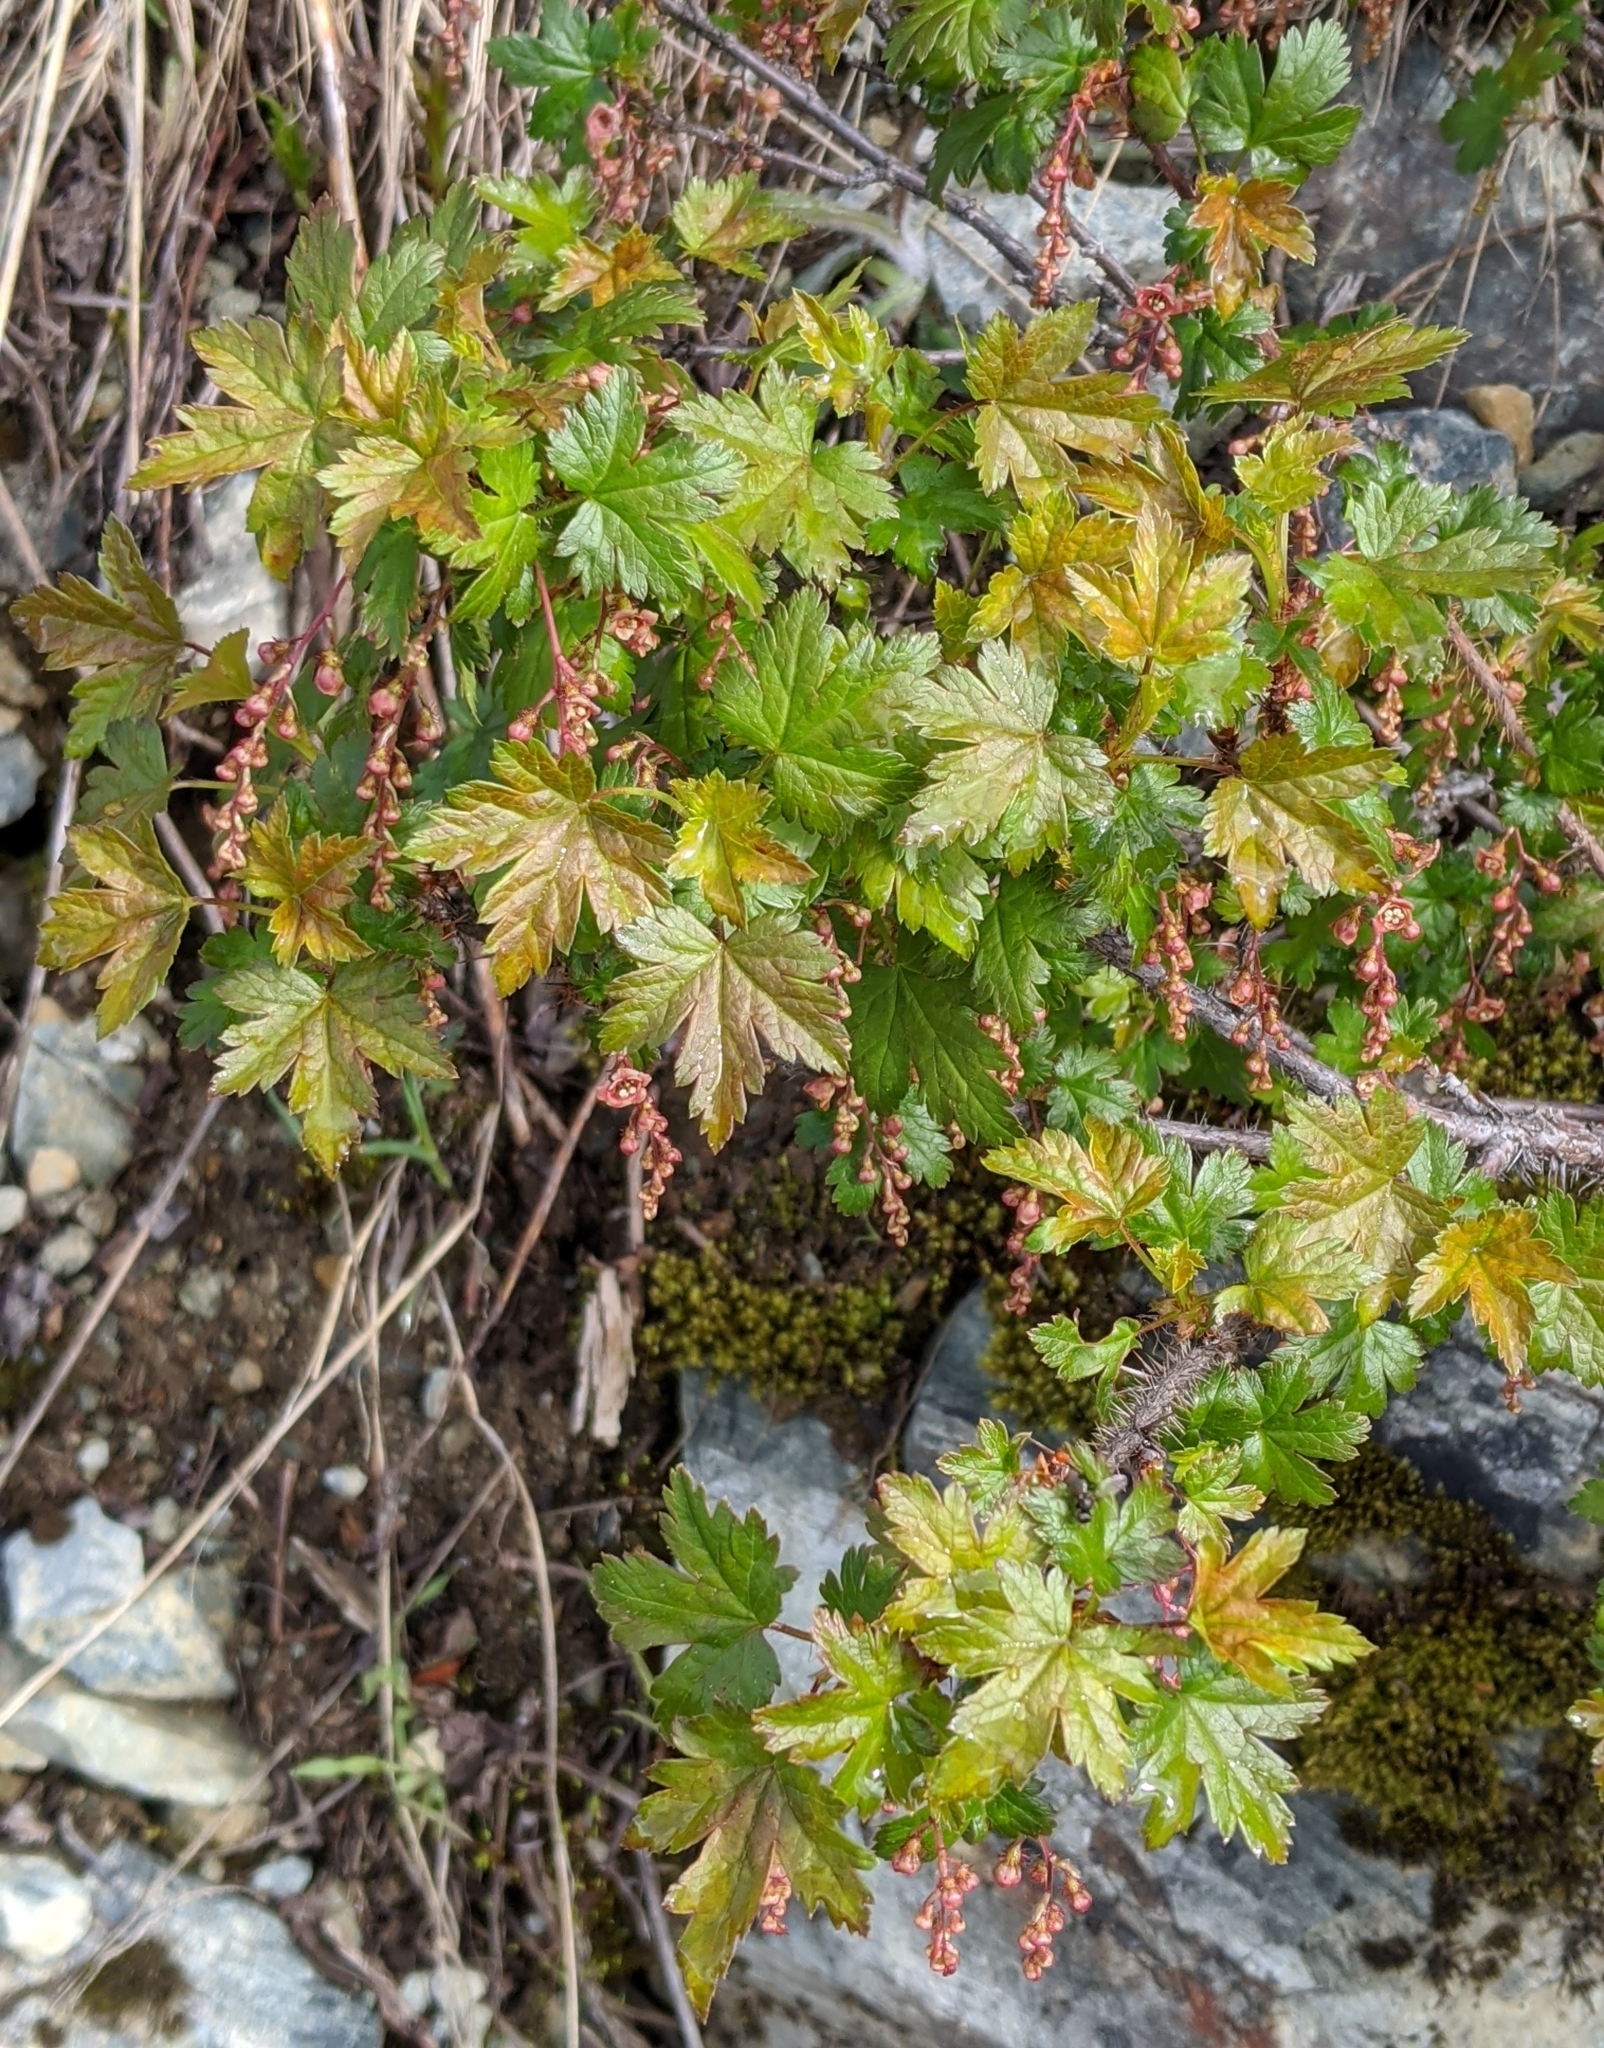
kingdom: Plantae
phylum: Tracheophyta
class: Magnoliopsida
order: Saxifragales
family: Grossulariaceae
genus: Ribes
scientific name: Ribes lacustre
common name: Black gooseberry
